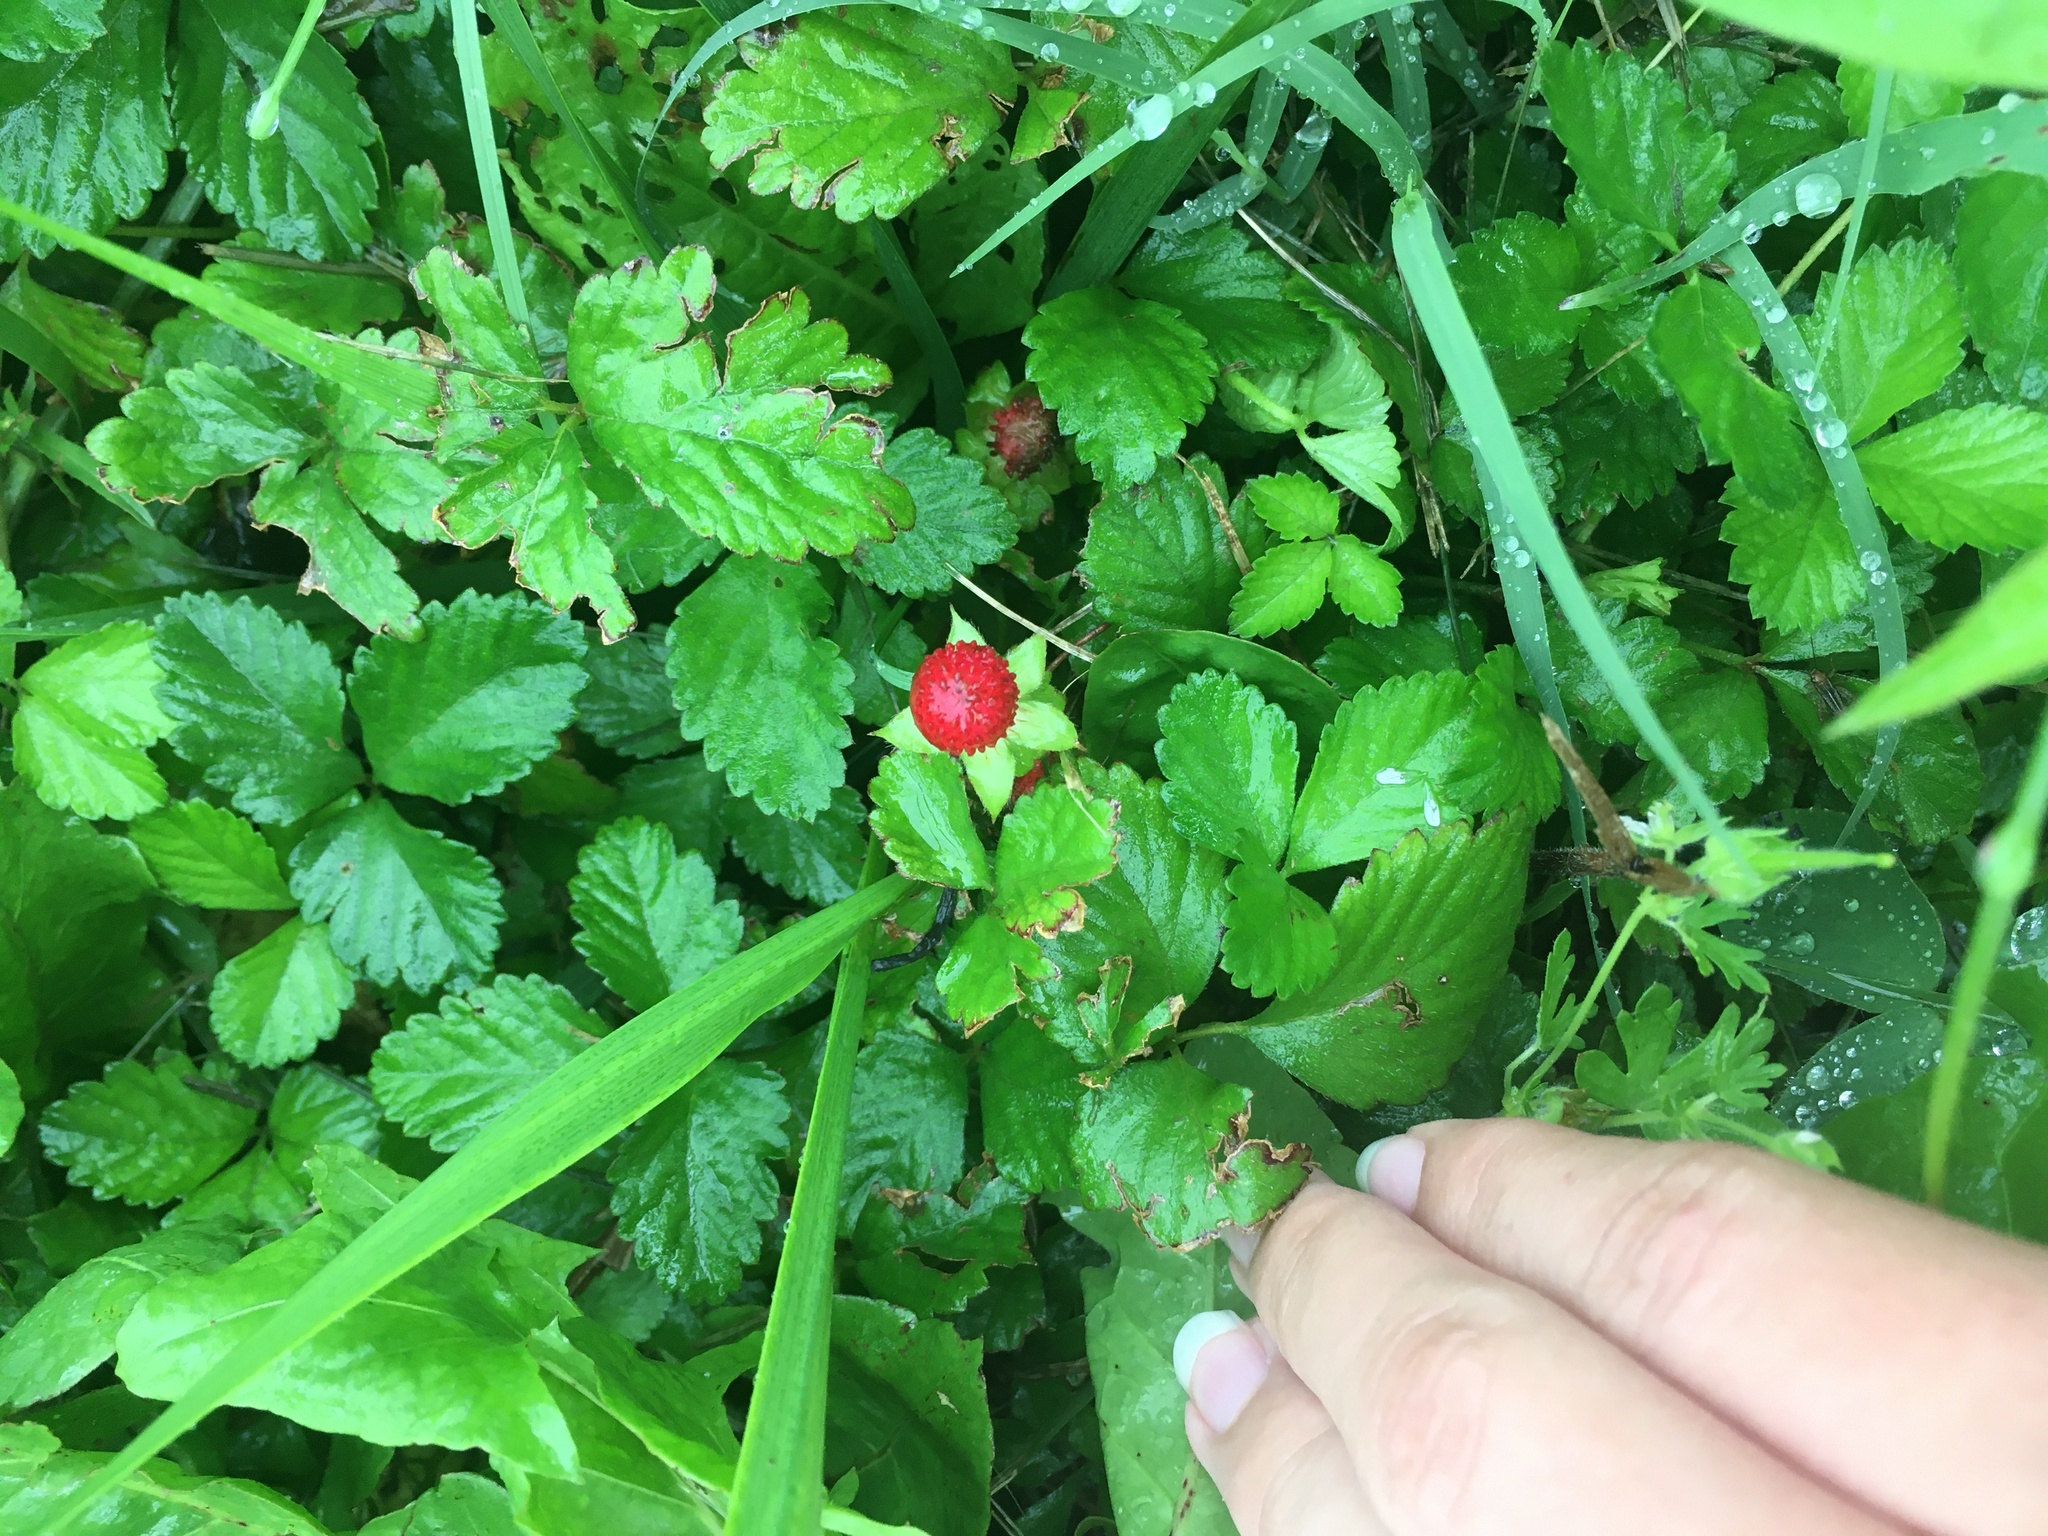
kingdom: Plantae
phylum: Tracheophyta
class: Magnoliopsida
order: Rosales
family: Rosaceae
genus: Potentilla
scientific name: Potentilla indica
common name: Yellow-flowered strawberry
